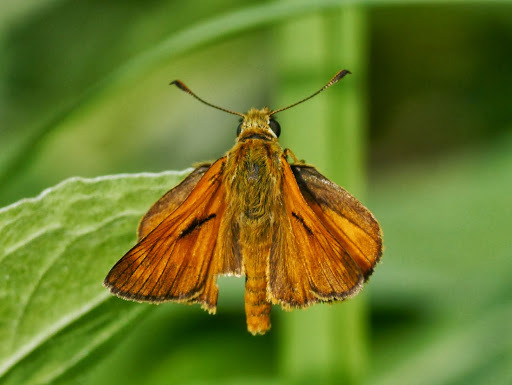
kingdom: Animalia
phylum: Arthropoda
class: Insecta
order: Lepidoptera
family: Hesperiidae
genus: Ochlodes
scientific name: Ochlodes venata
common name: Large skipper
